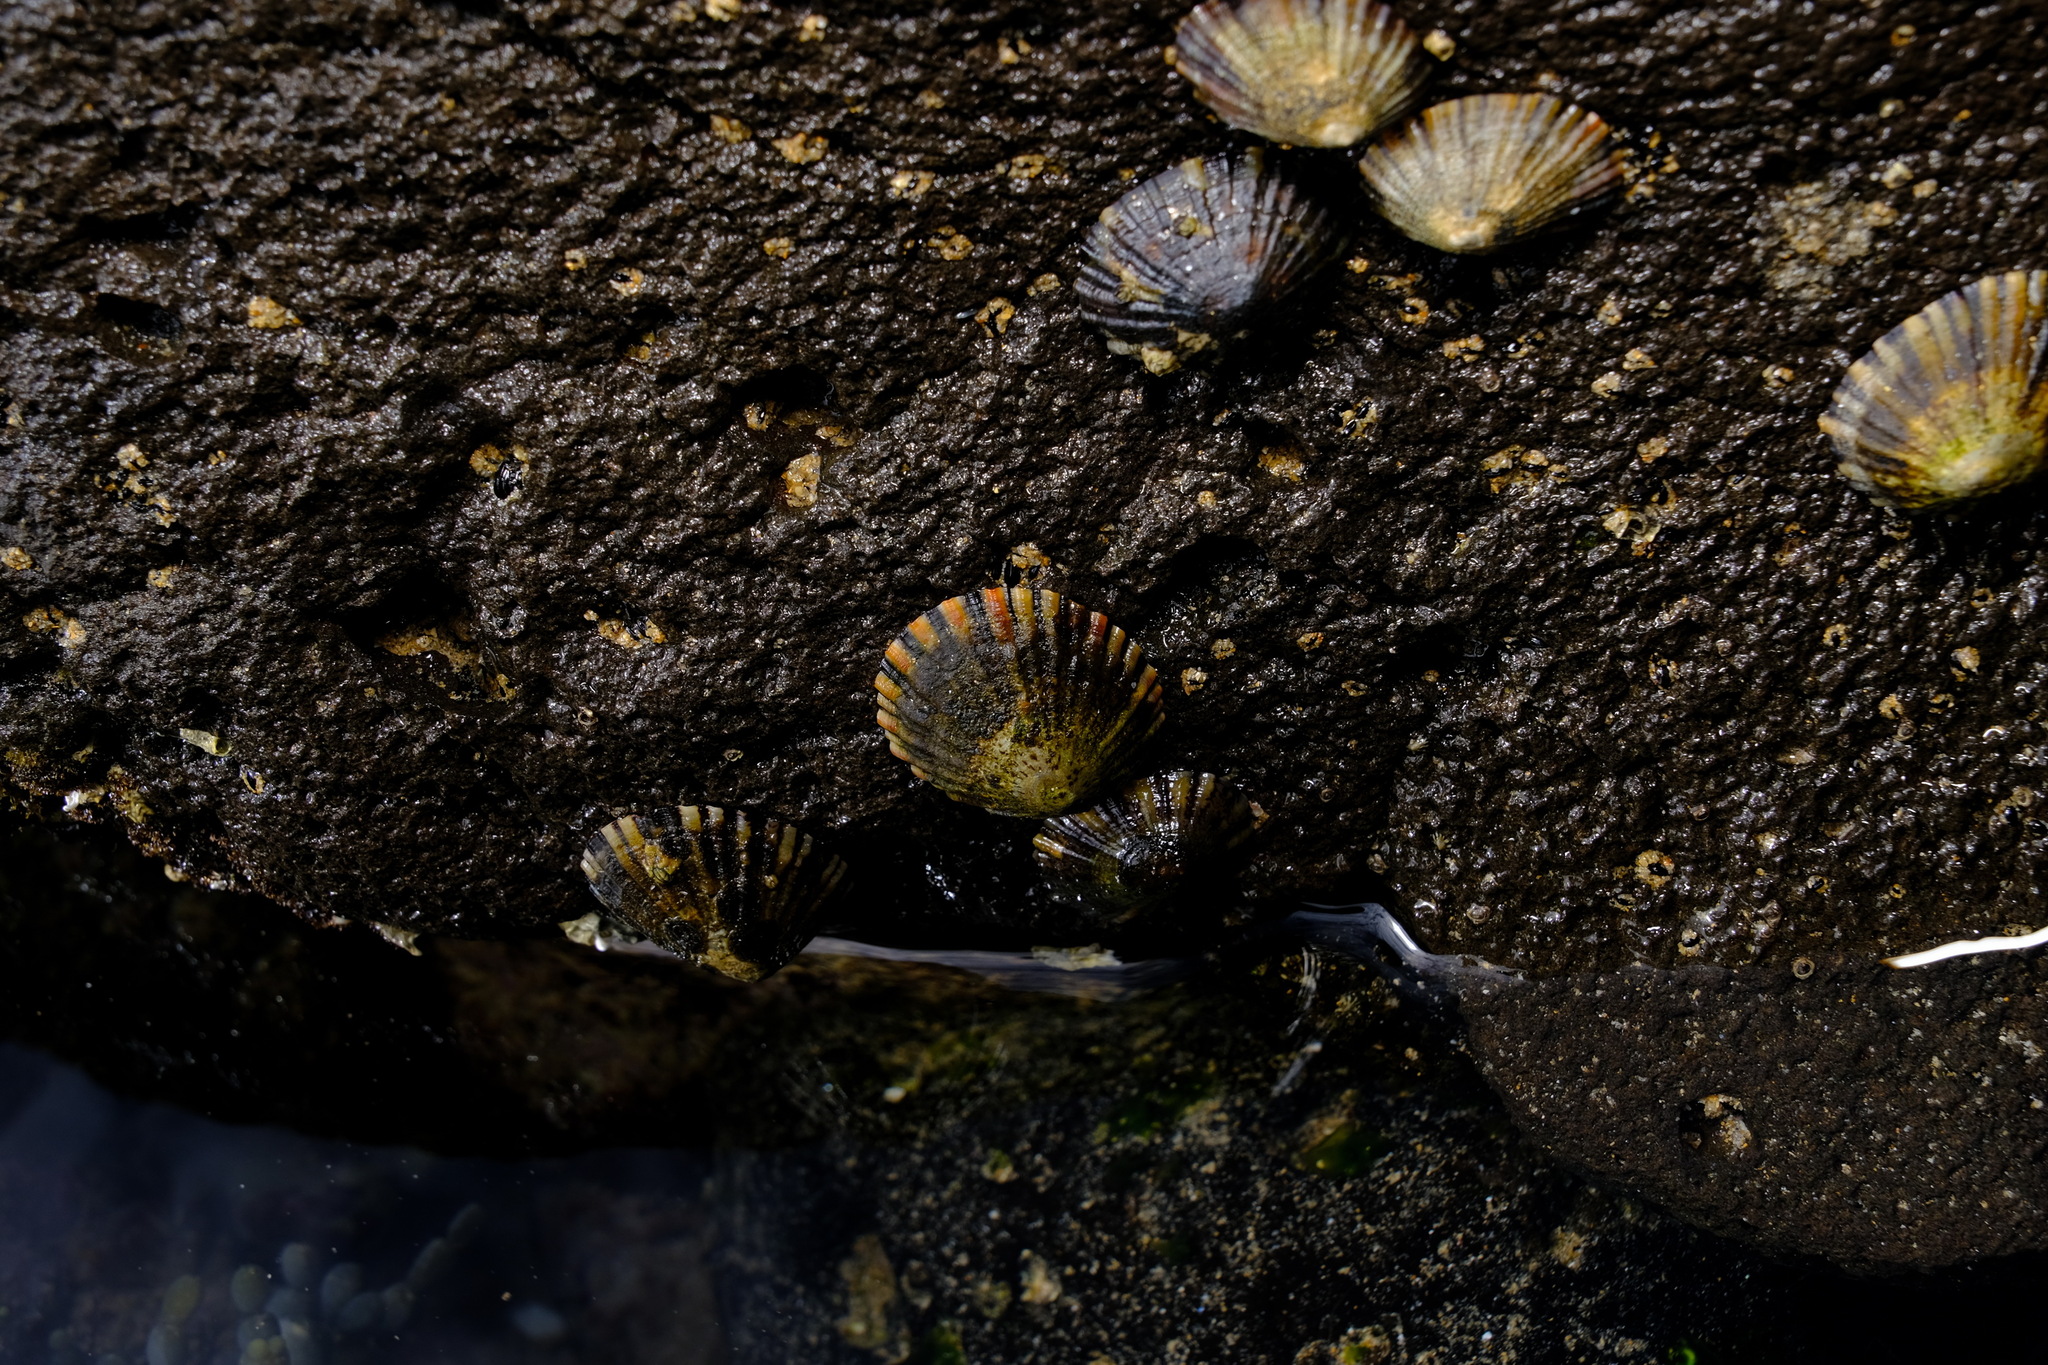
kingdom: Animalia
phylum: Mollusca
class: Gastropoda
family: Nacellidae
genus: Cellana
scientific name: Cellana tramoserica
